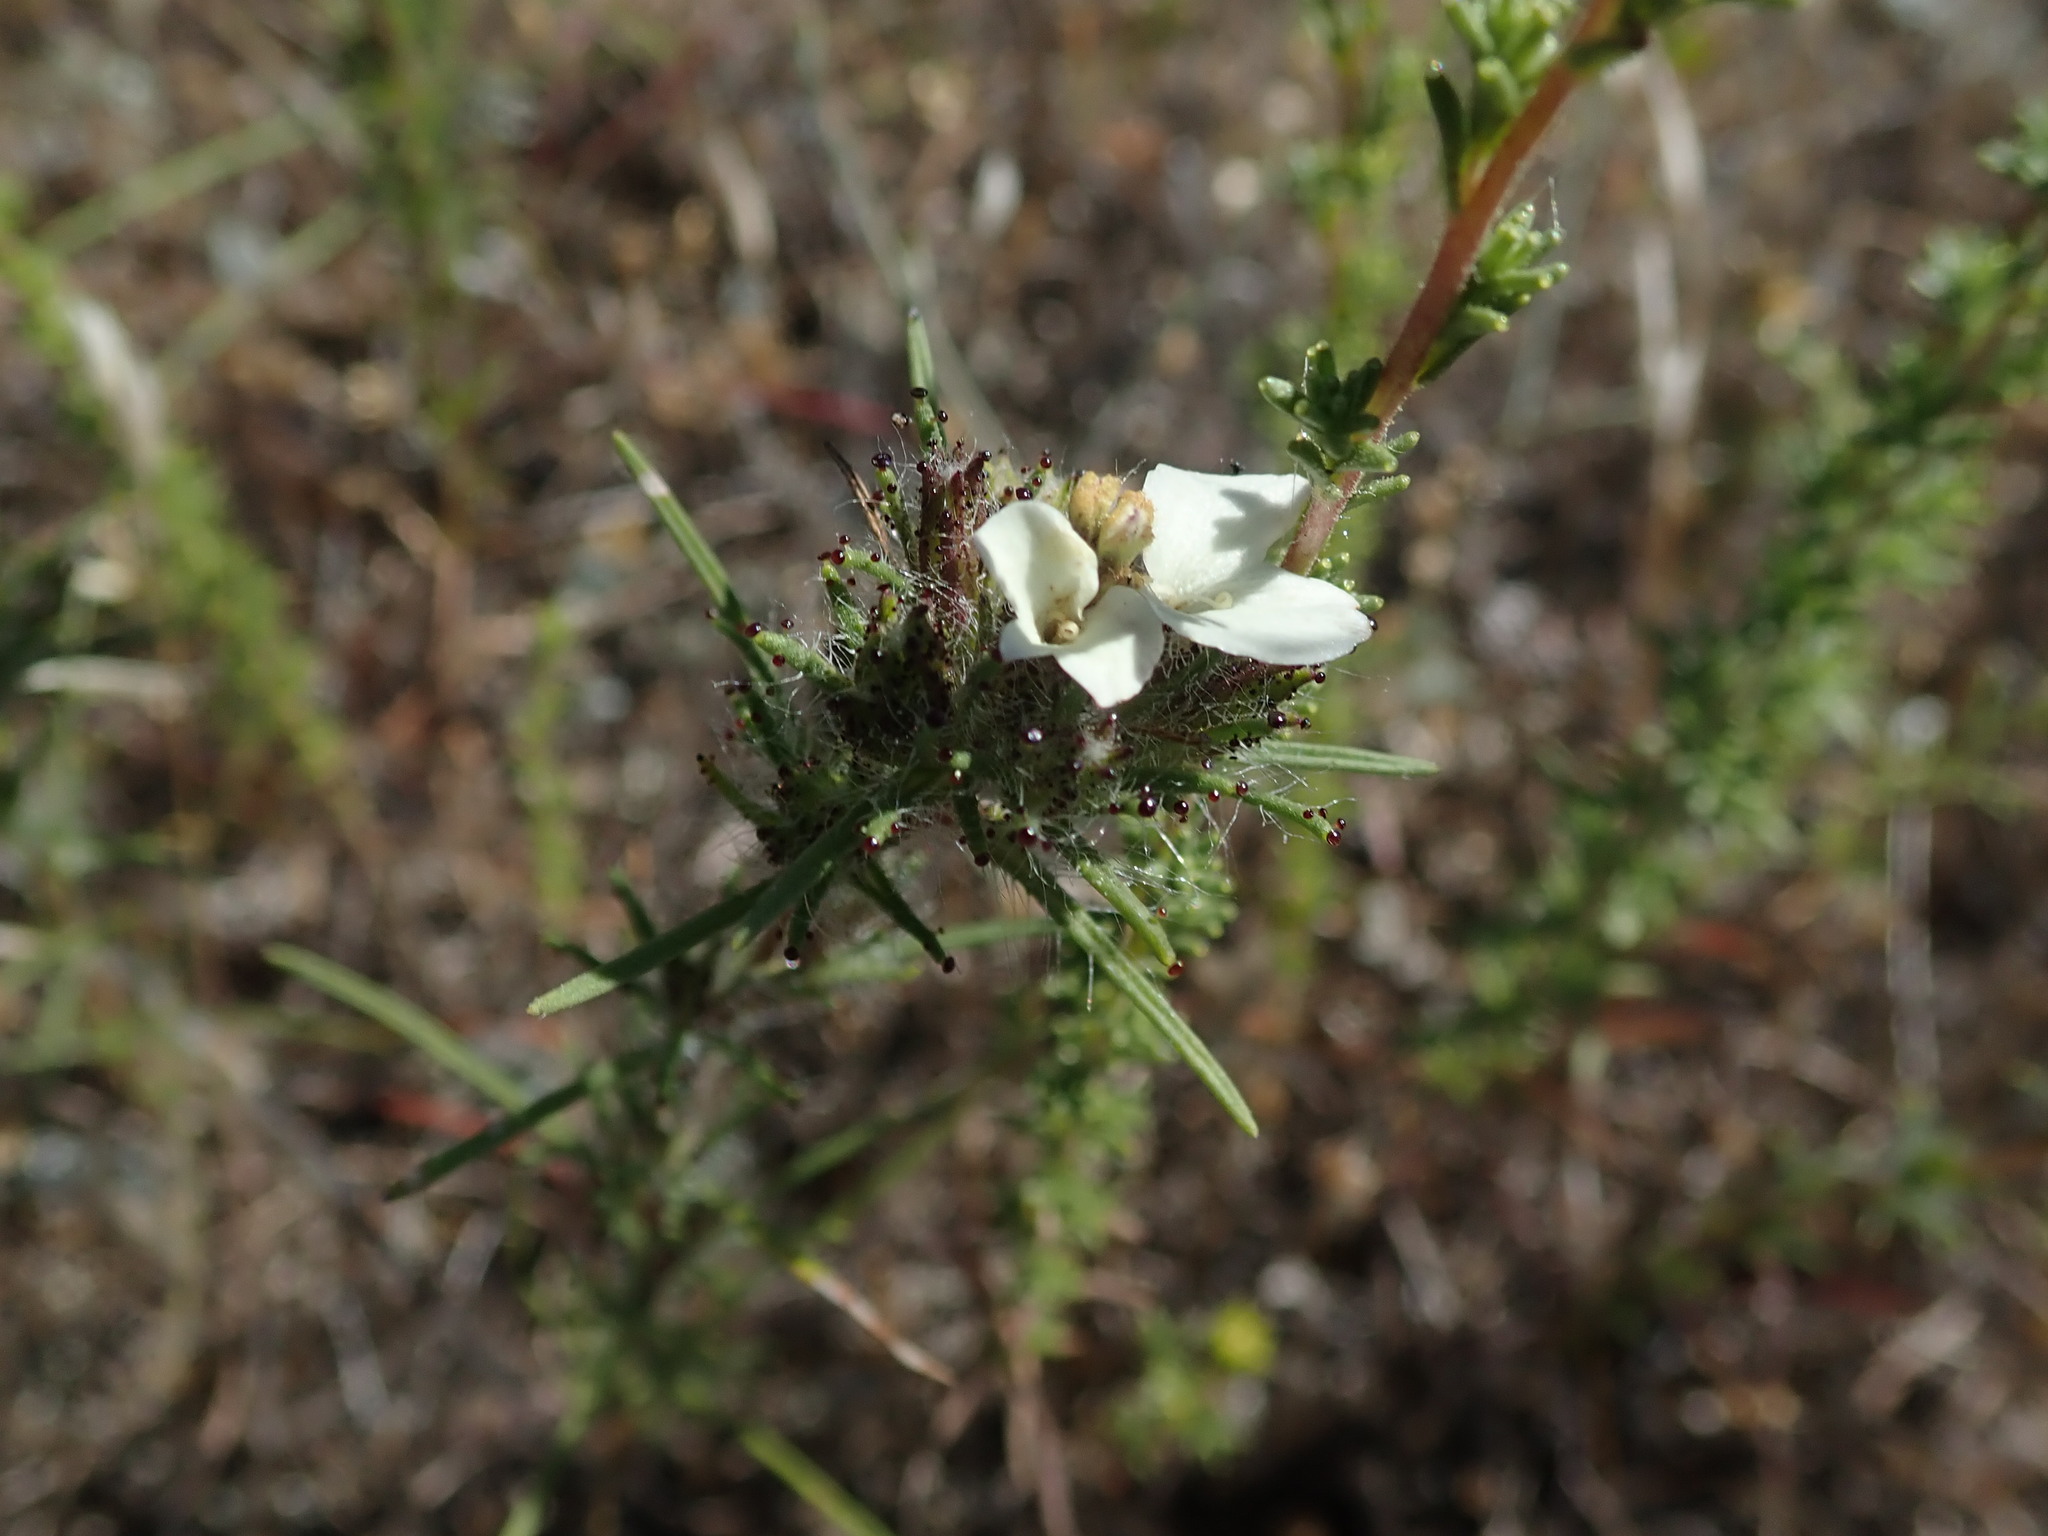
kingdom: Plantae
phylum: Tracheophyta
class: Magnoliopsida
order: Asterales
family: Asteraceae
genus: Calycadenia
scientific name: Calycadenia multiglandulosa
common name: Sticky calycadenia
